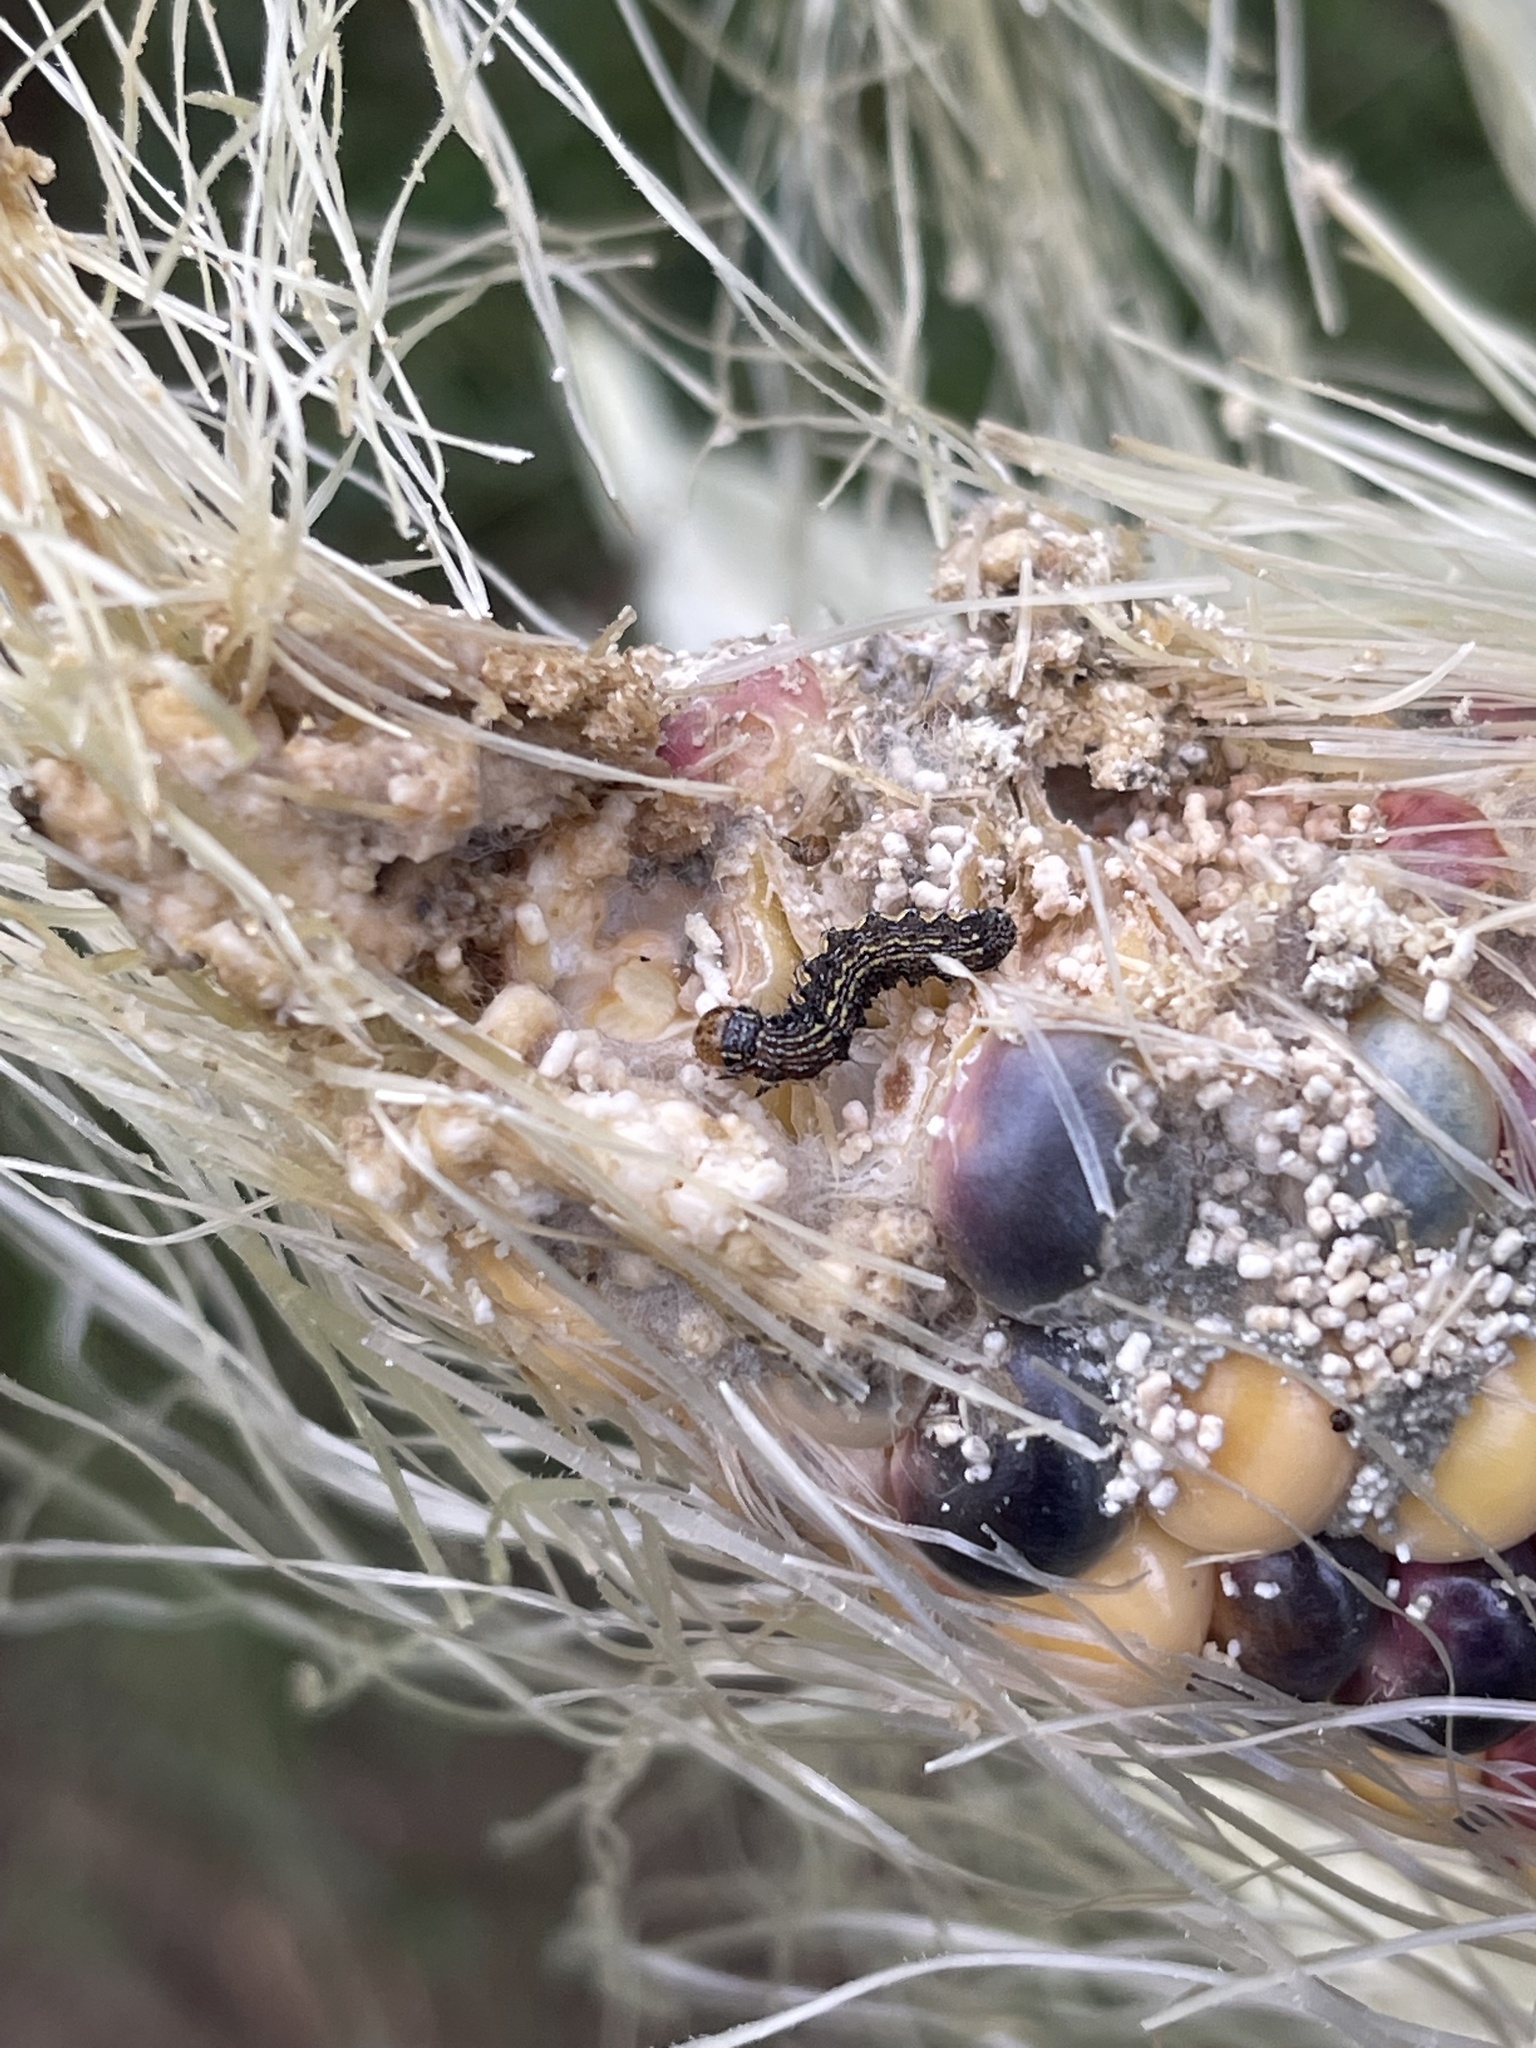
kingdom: Animalia
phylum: Arthropoda
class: Insecta
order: Lepidoptera
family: Noctuidae
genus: Helicoverpa
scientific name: Helicoverpa zea
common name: Bollworm
